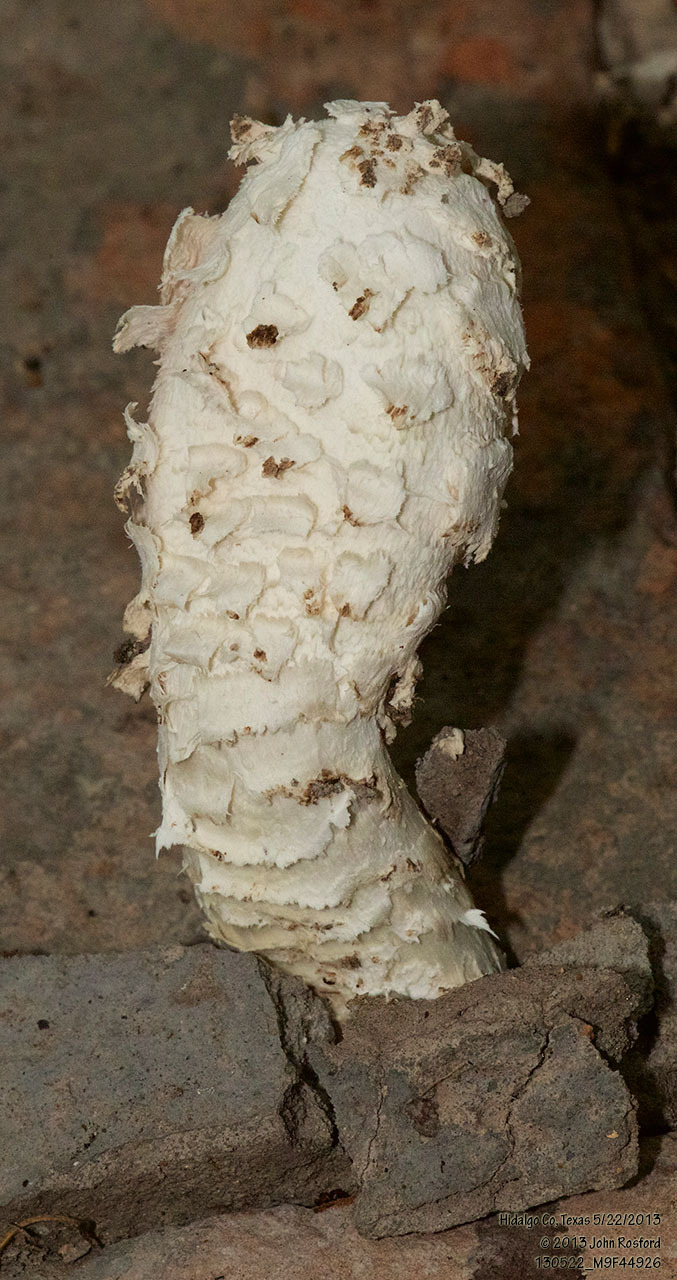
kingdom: Fungi
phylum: Basidiomycota
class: Agaricomycetes
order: Agaricales
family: Agaricaceae
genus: Podaxis
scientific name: Podaxis longii
